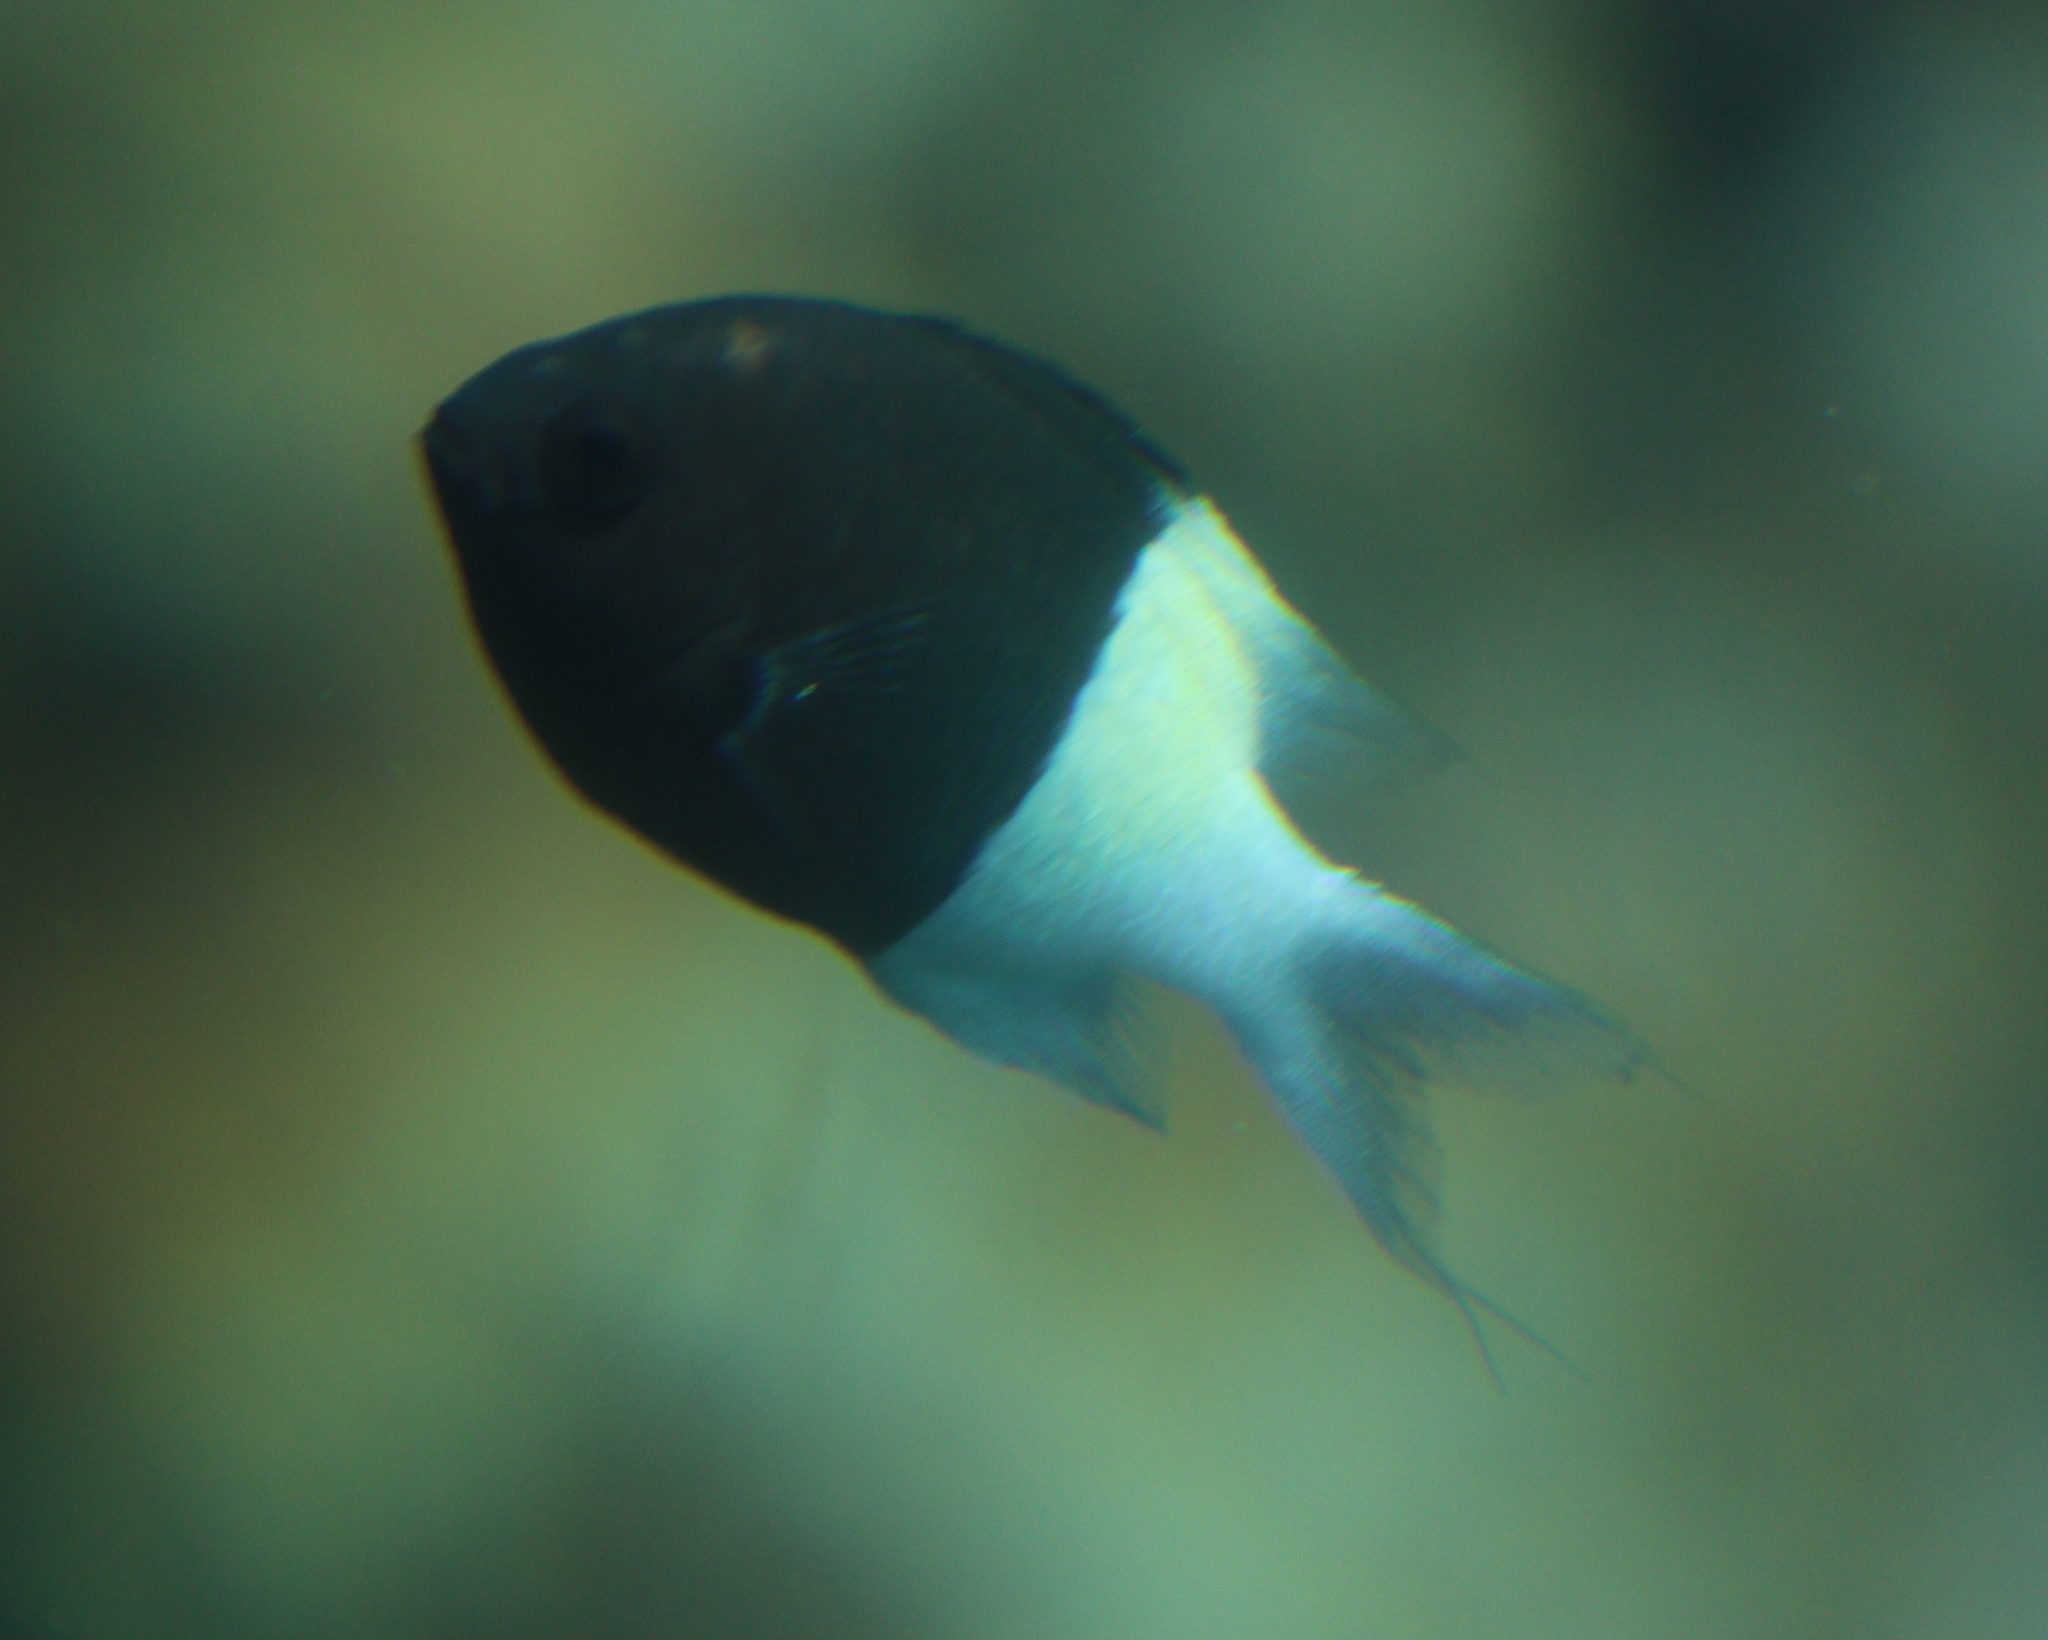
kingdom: Animalia
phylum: Chordata
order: Perciformes
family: Pomacentridae
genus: Chromis
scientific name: Chromis dimidiata
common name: Half-and-half chromis
